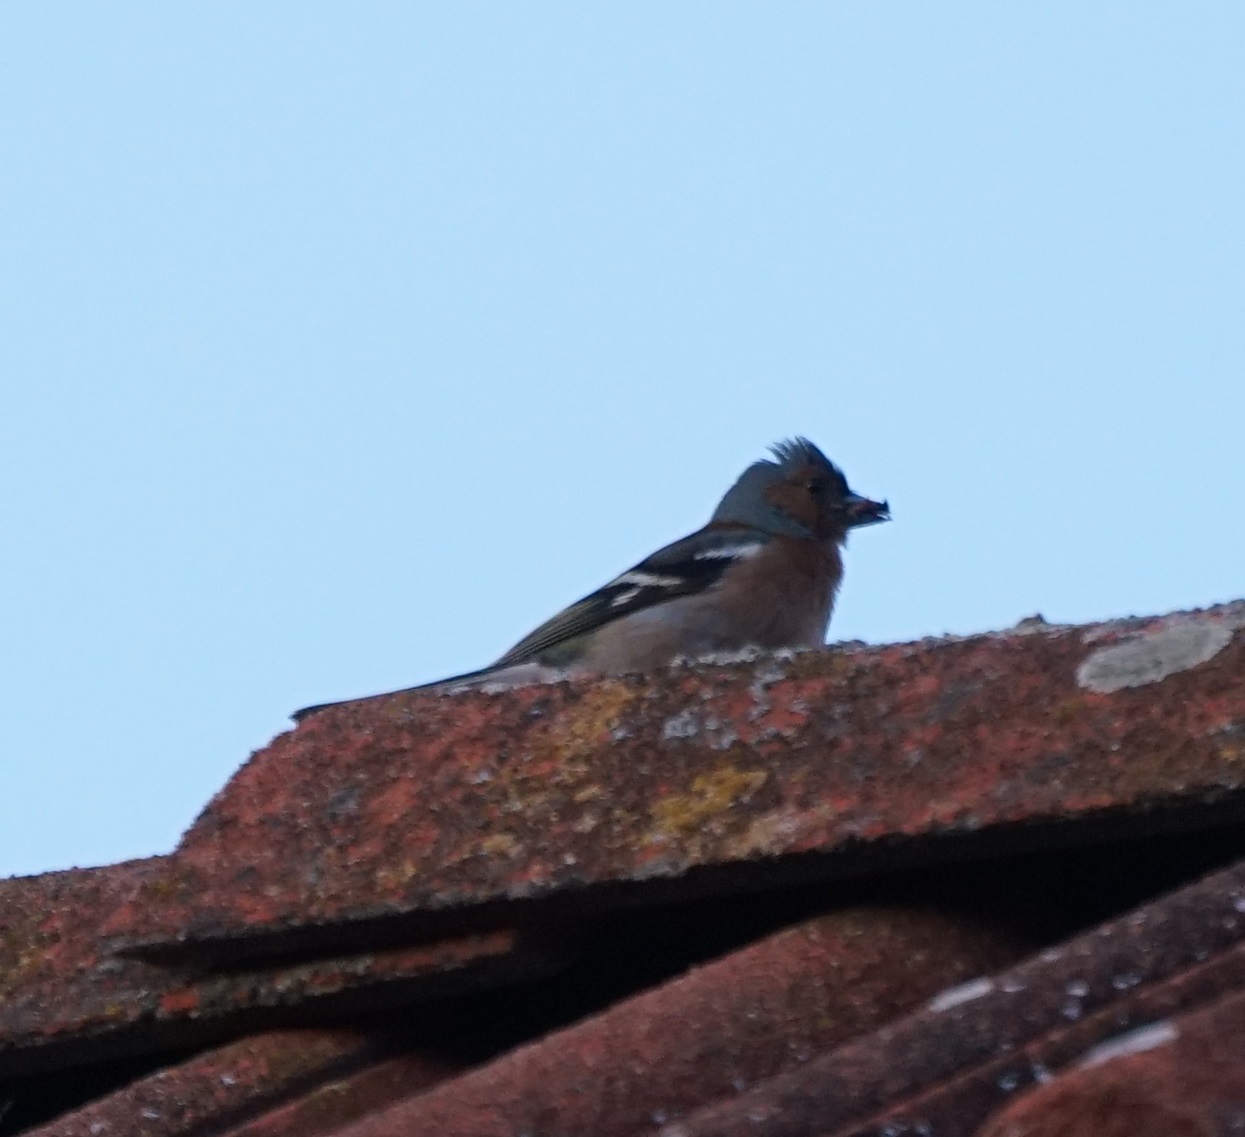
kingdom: Animalia
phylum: Chordata
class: Aves
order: Passeriformes
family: Fringillidae
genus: Fringilla
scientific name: Fringilla coelebs
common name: Common chaffinch
